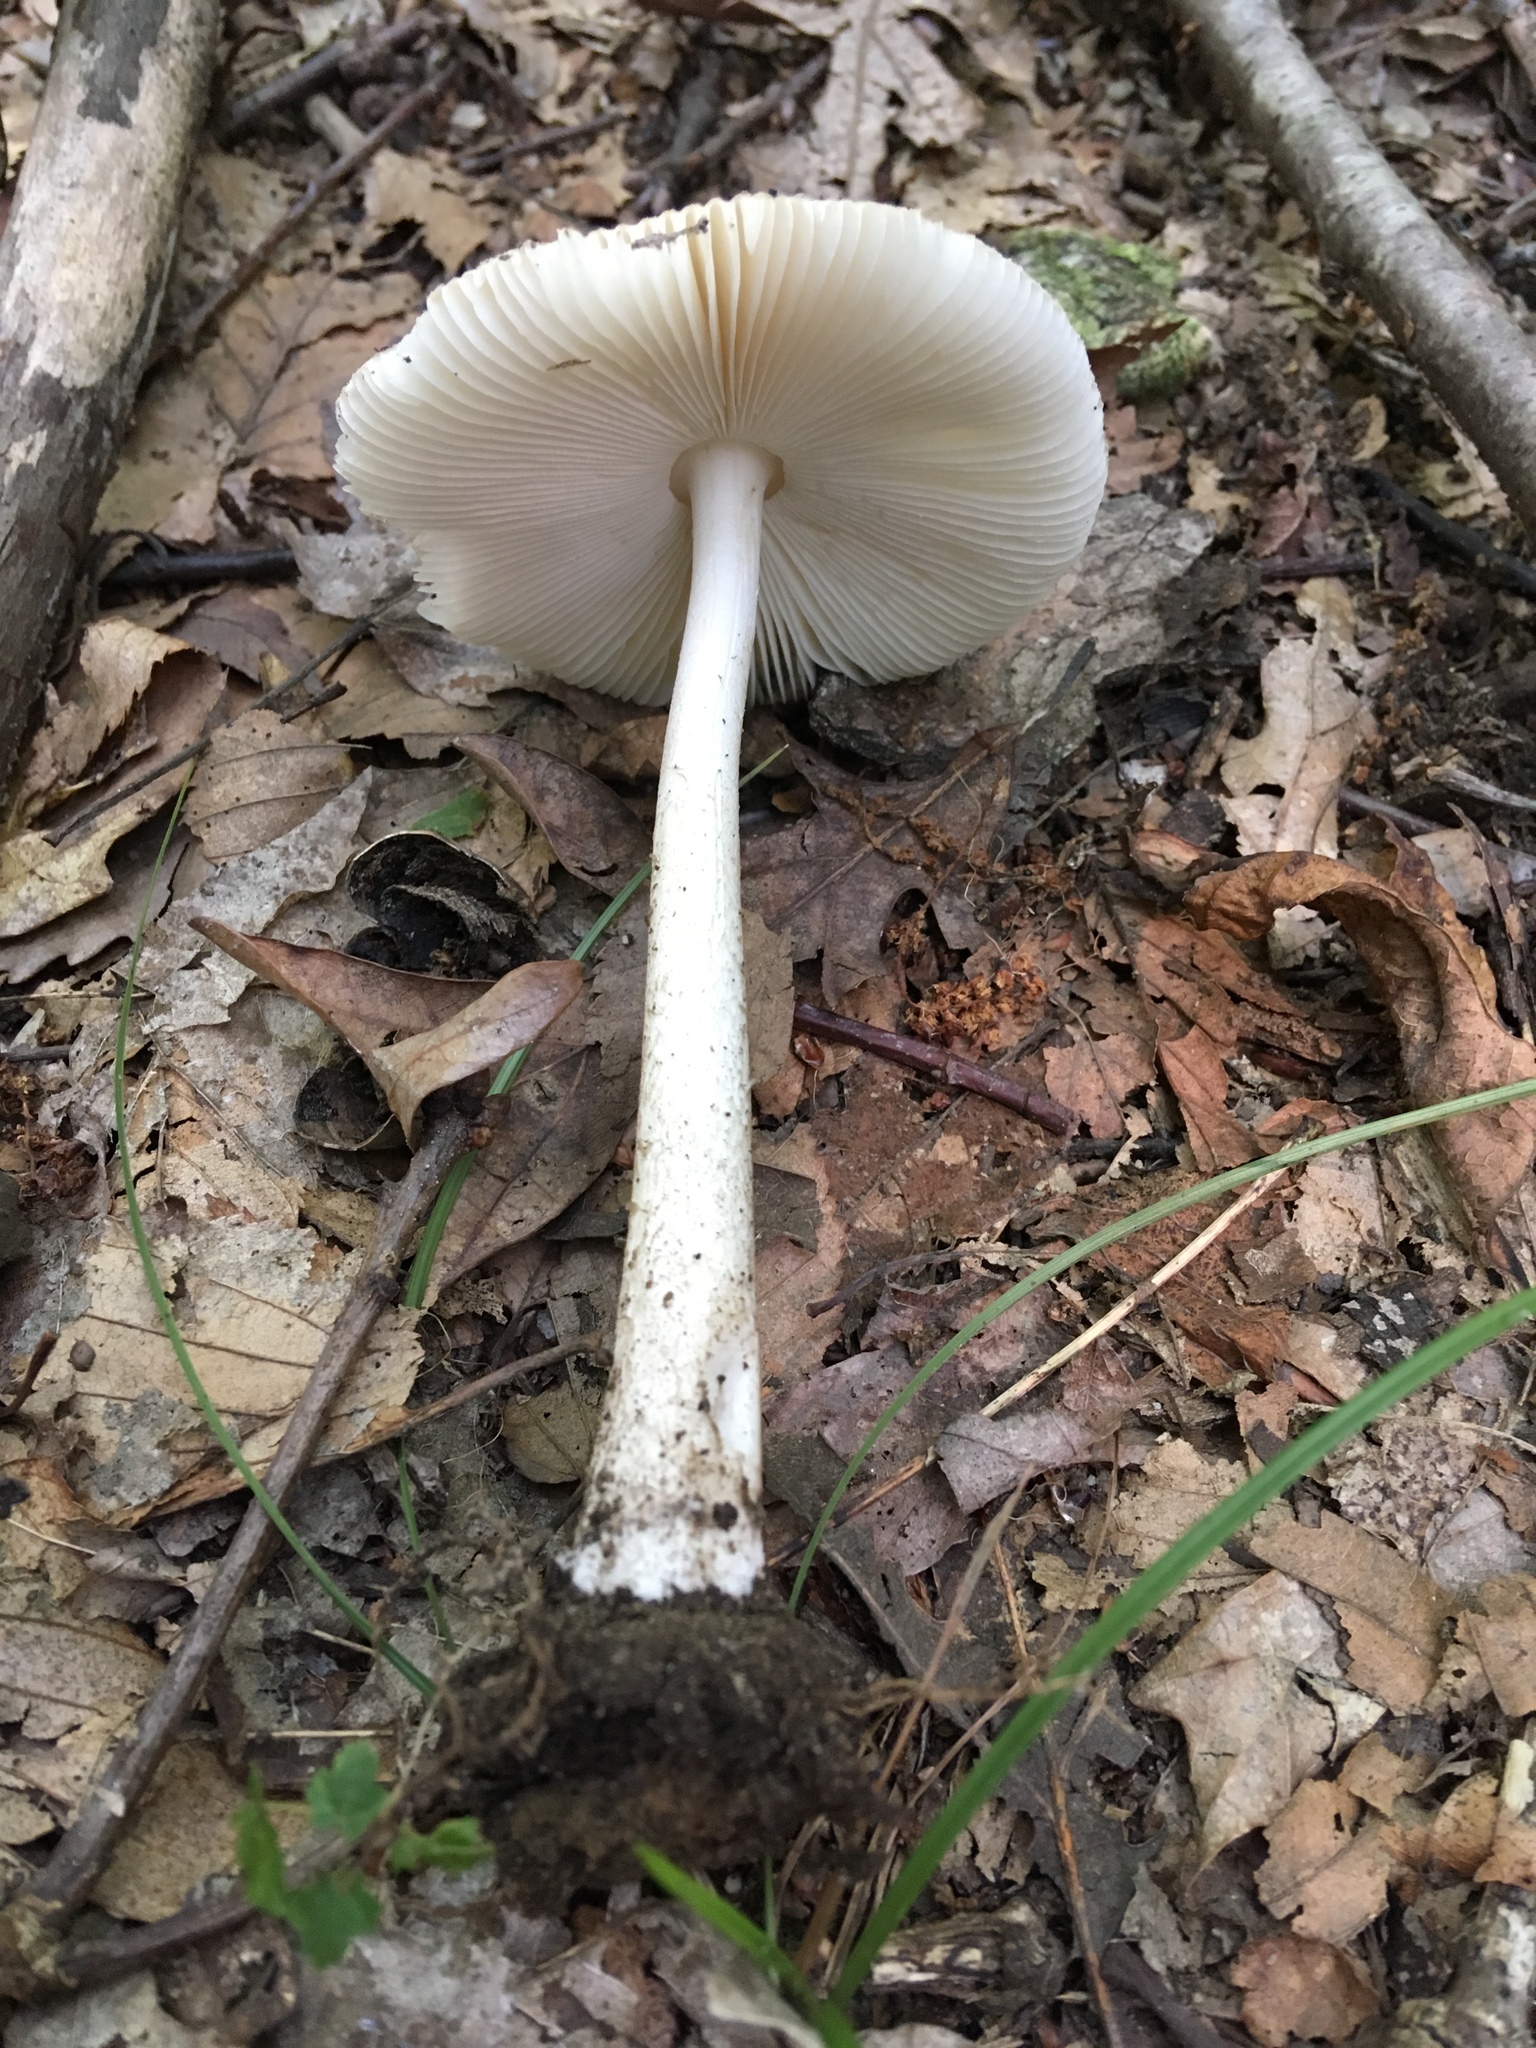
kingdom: Fungi
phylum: Basidiomycota
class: Agaricomycetes
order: Agaricales
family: Amanitaceae
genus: Amanita
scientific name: Amanita rhacopus
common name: Shaggy legged ringless amanita
